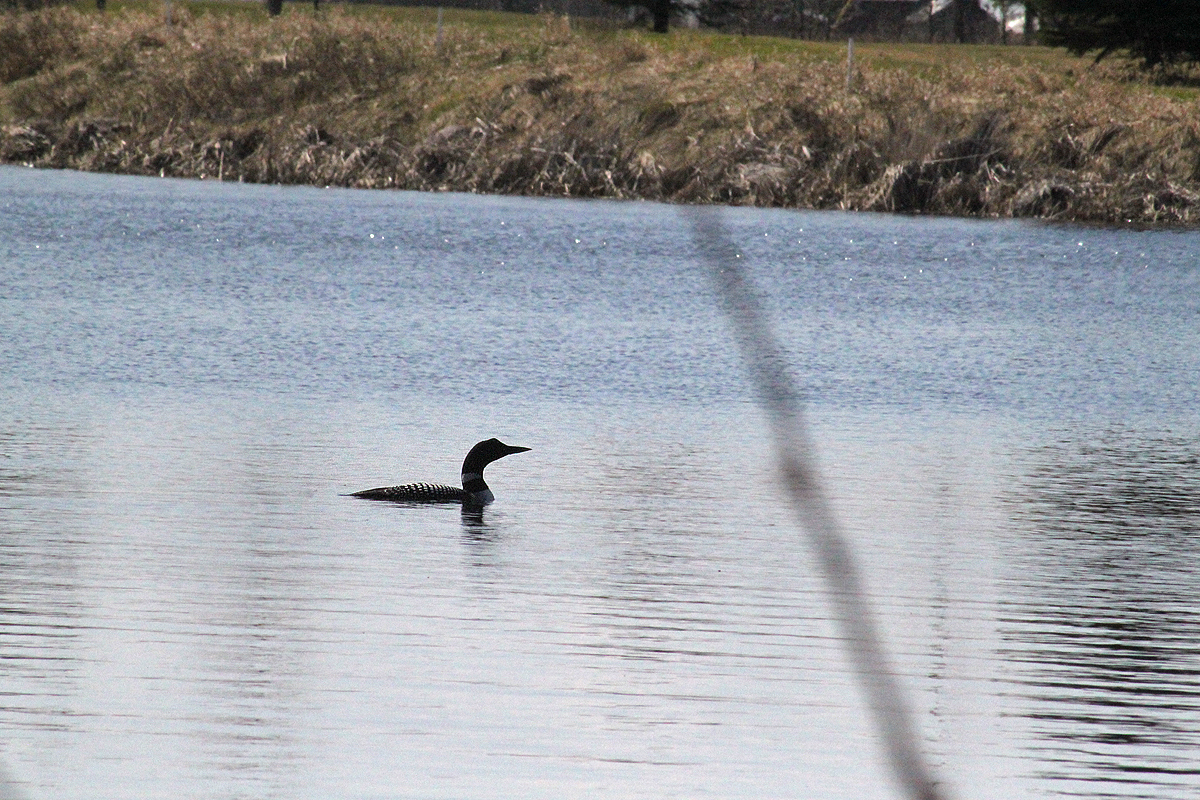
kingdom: Animalia
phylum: Chordata
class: Aves
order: Gaviiformes
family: Gaviidae
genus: Gavia
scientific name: Gavia immer
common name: Common loon
